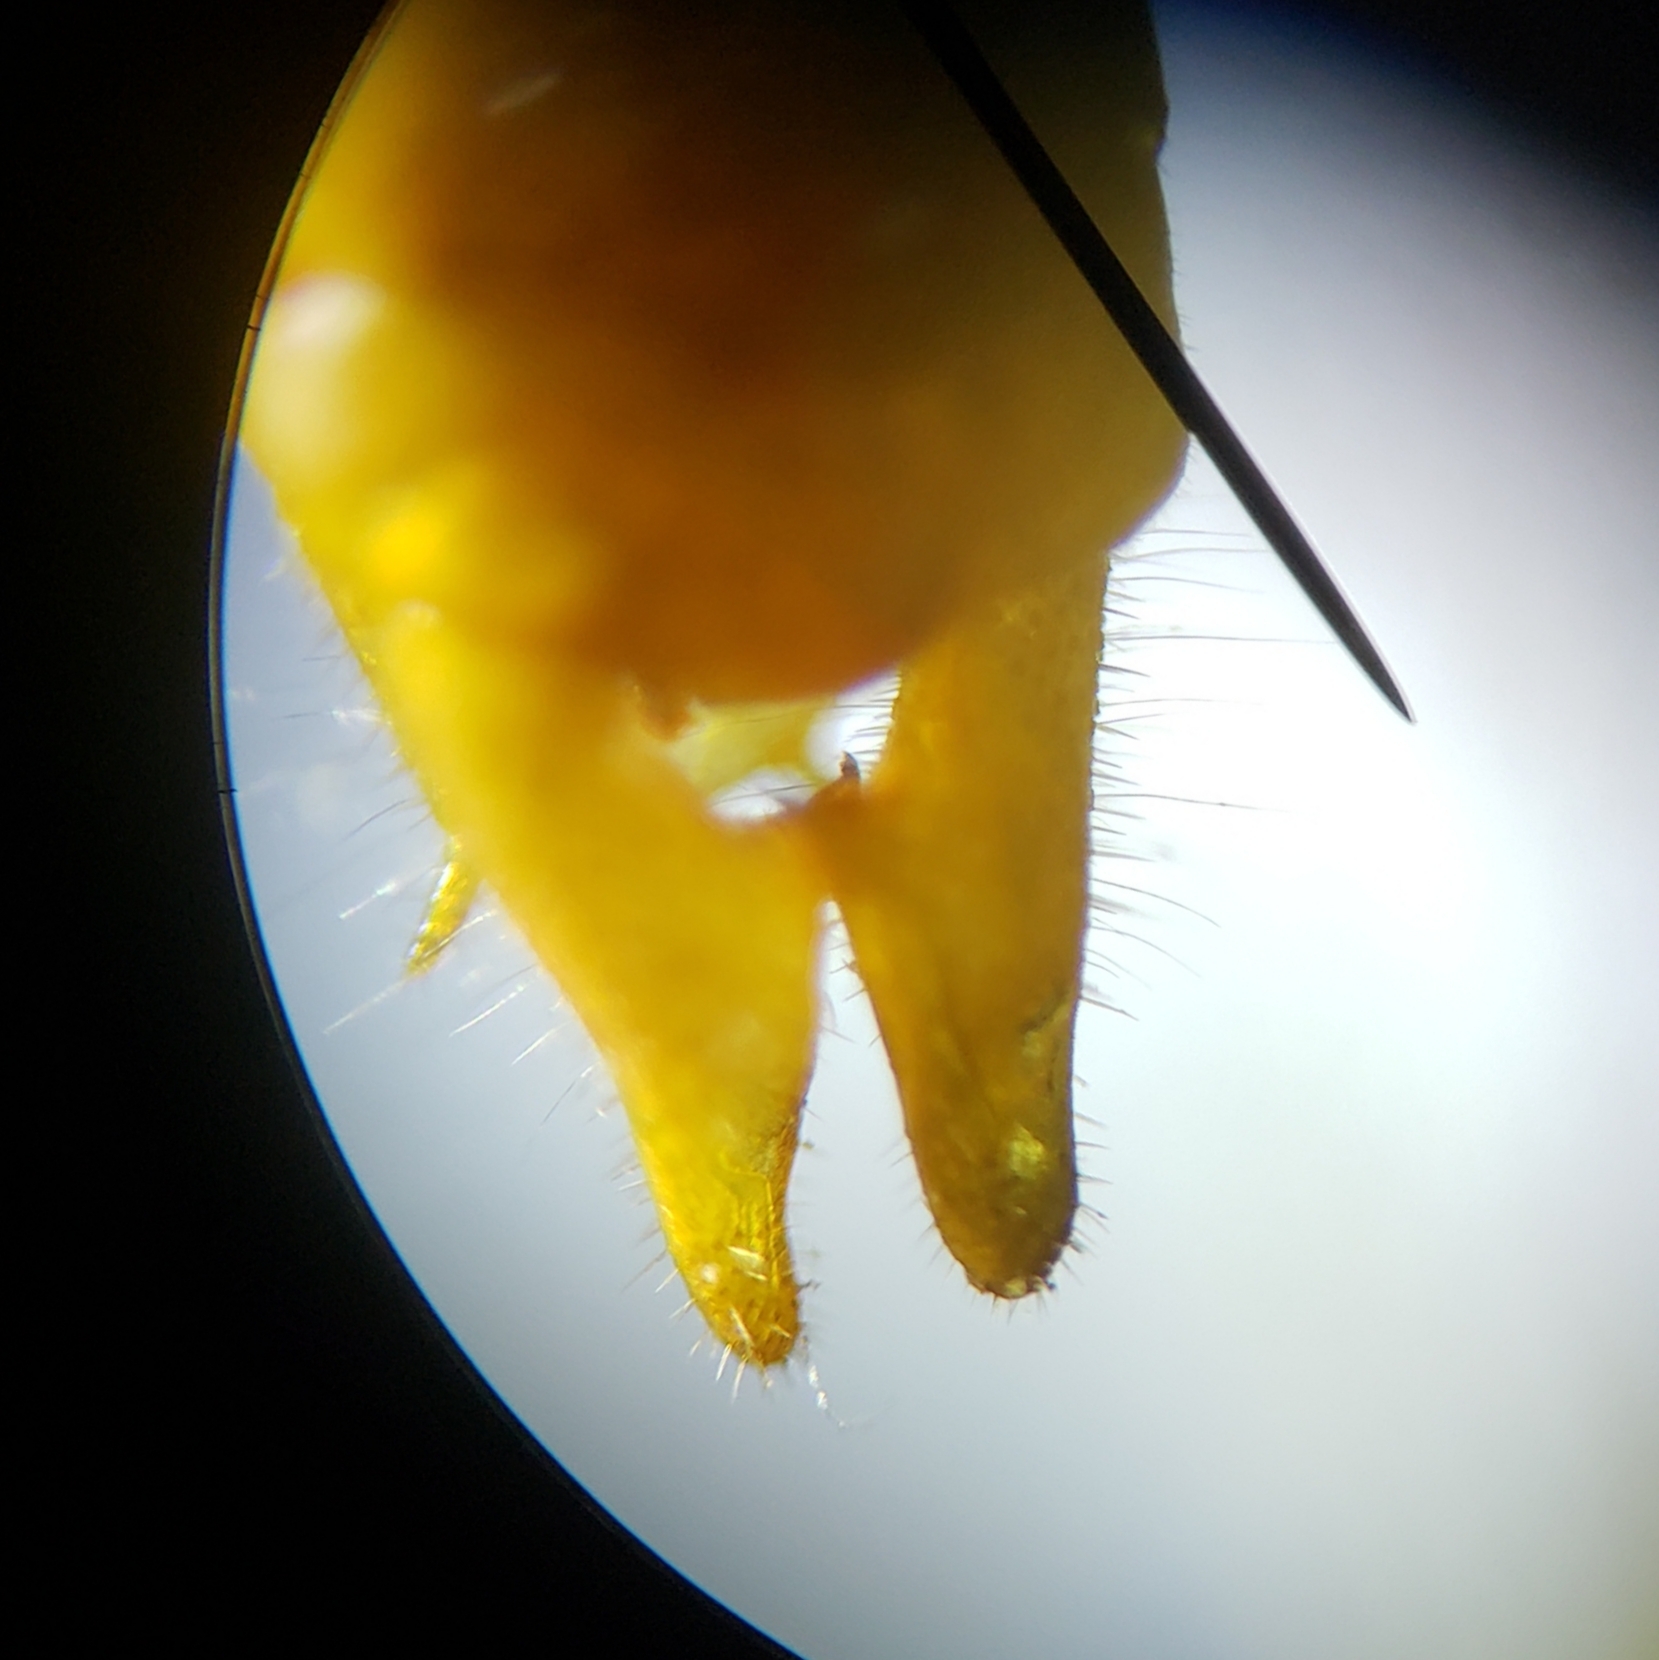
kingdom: Animalia
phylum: Arthropoda
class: Insecta
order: Orthoptera
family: Tettigoniidae
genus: Conocephalus
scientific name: Conocephalus cinereus
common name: Caribbean meadow katydid
